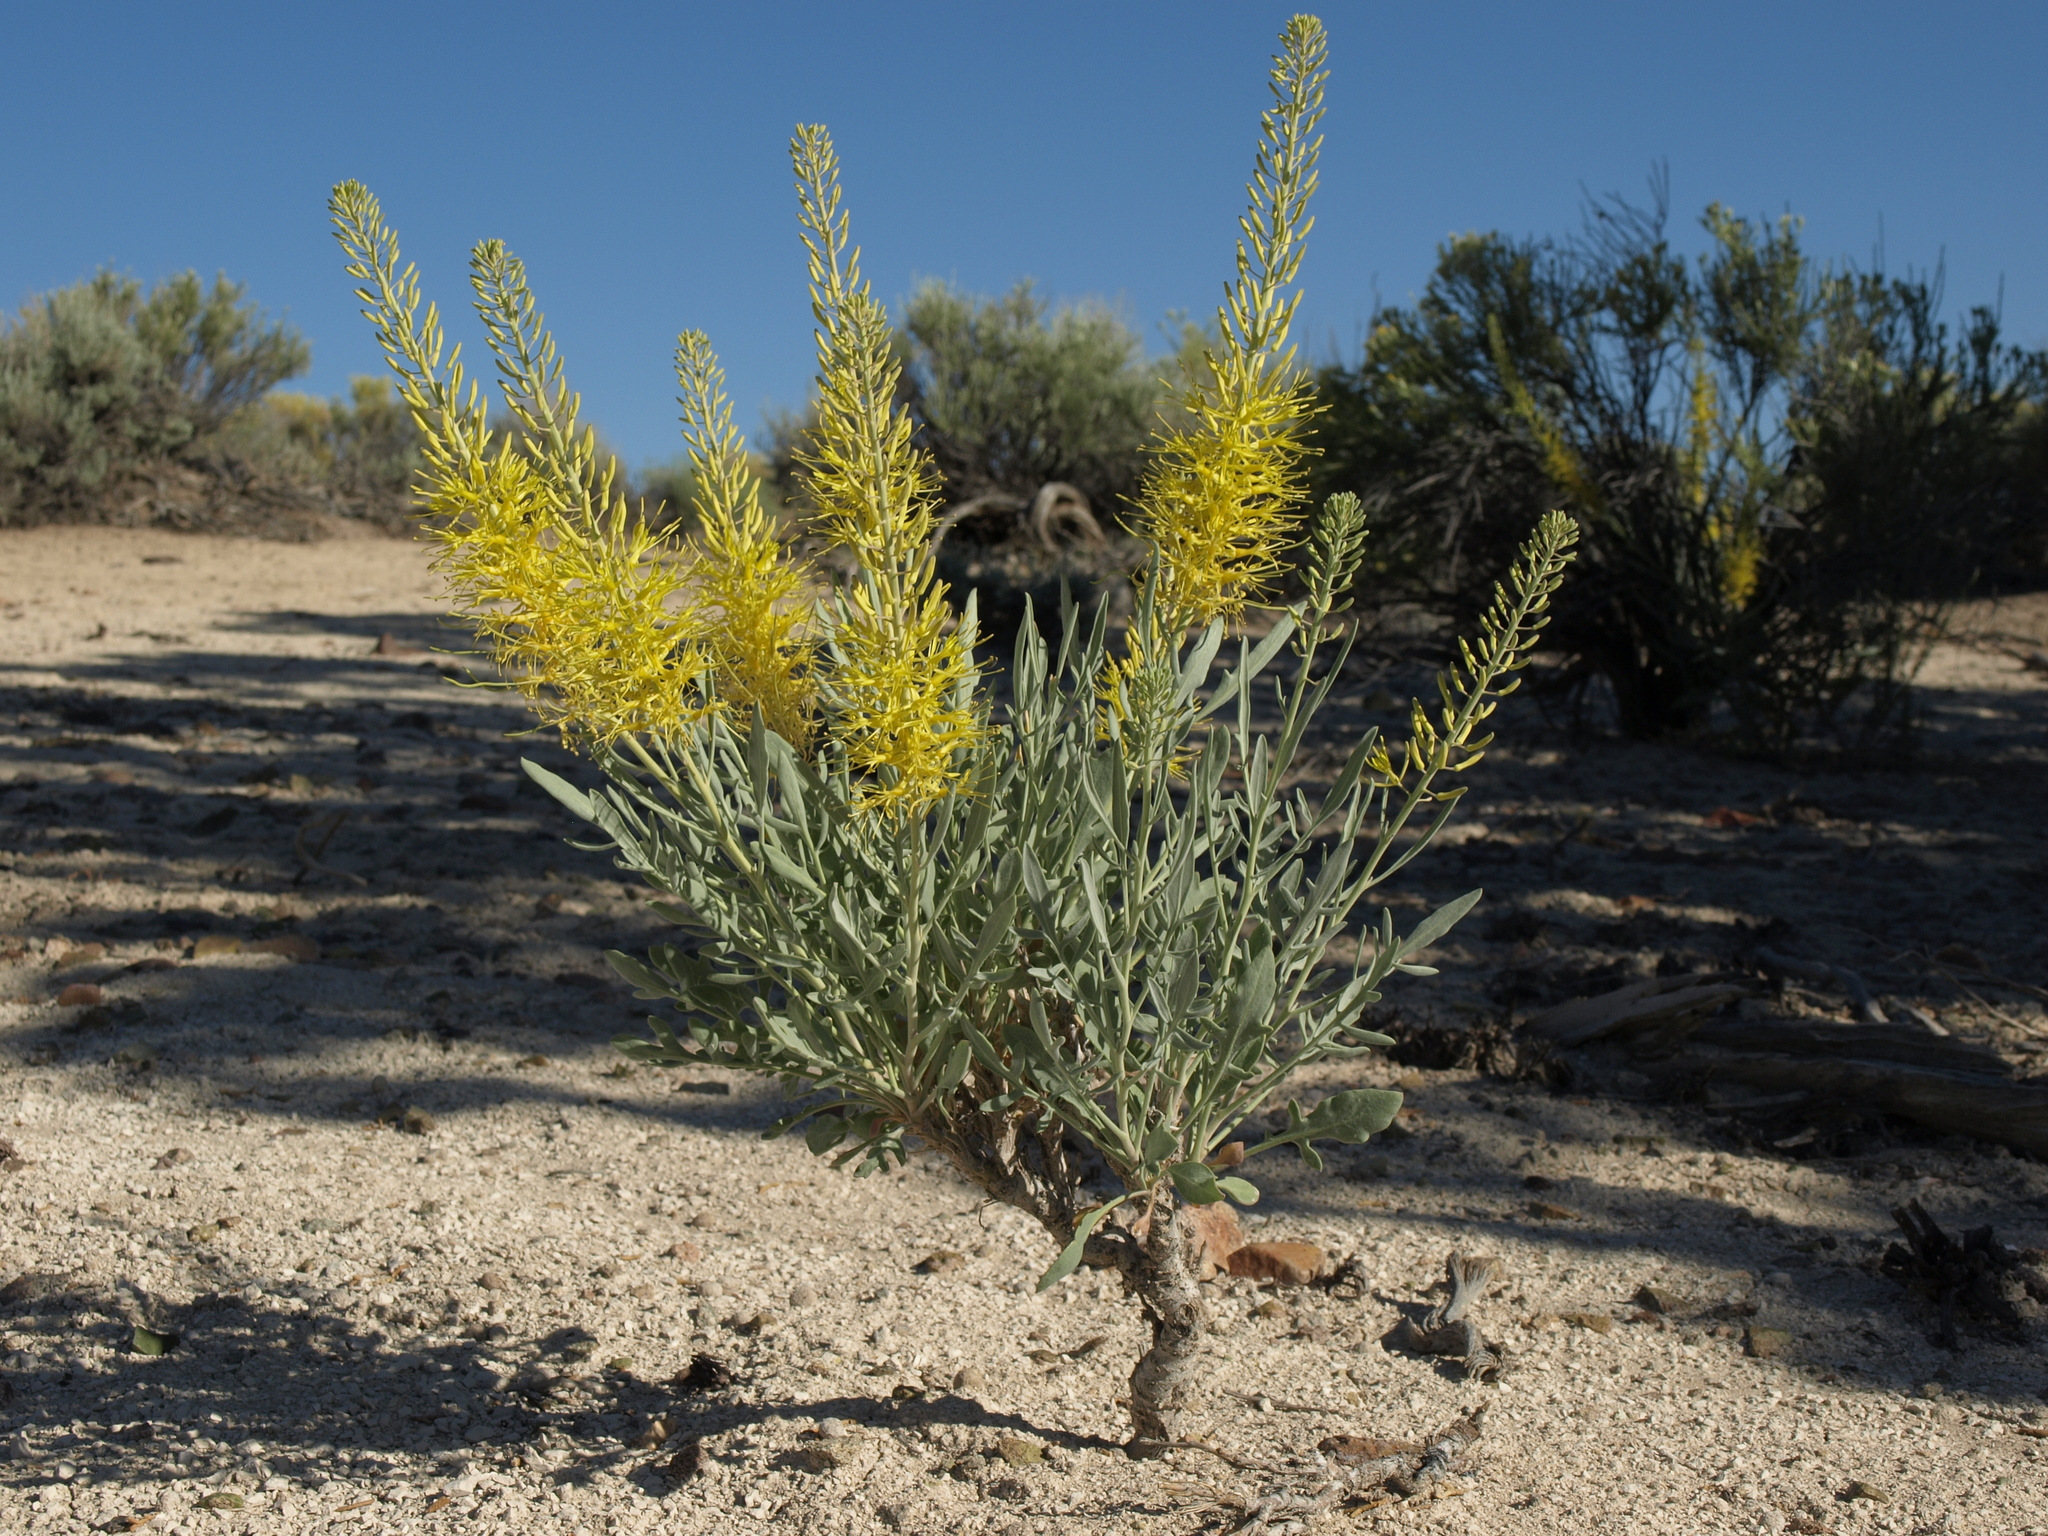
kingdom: Plantae
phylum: Tracheophyta
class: Magnoliopsida
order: Brassicales
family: Brassicaceae
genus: Stanleya
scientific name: Stanleya pinnata
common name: Prince's-plume
